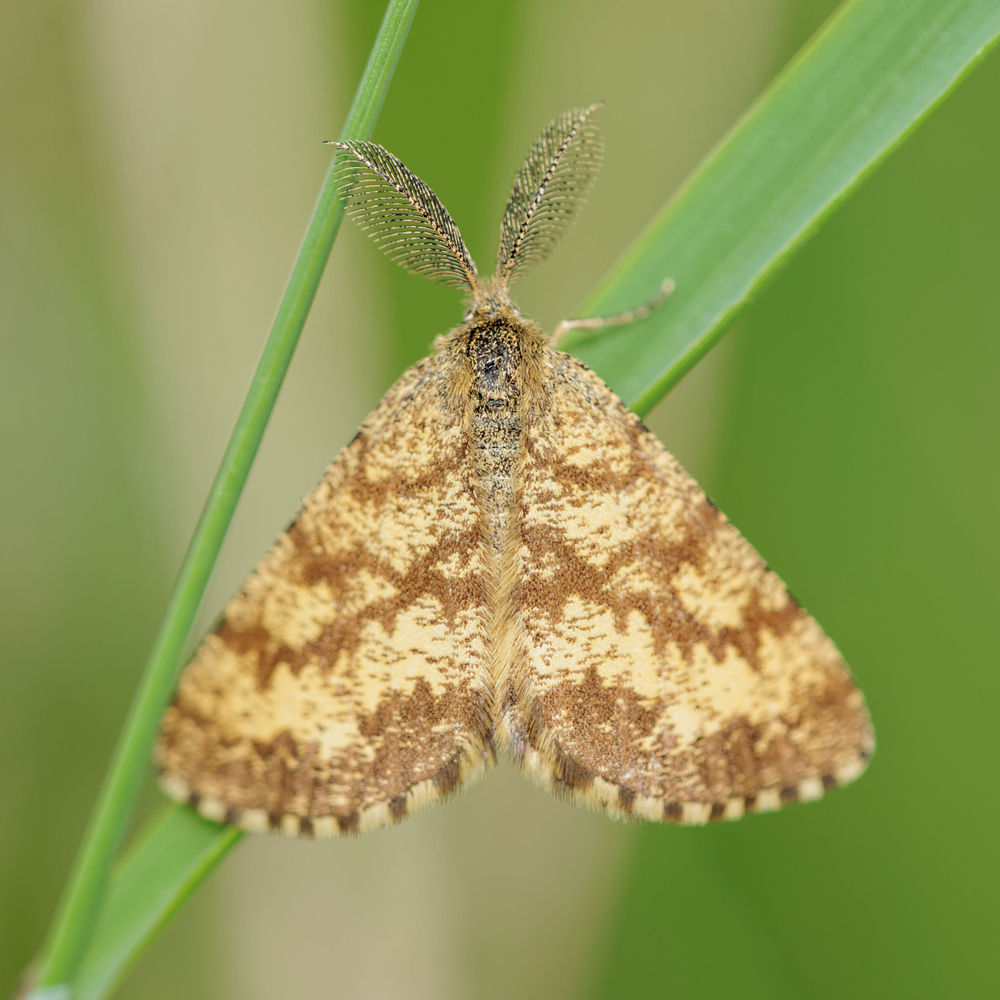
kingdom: Animalia
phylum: Arthropoda
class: Insecta
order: Lepidoptera
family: Geometridae
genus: Ematurga
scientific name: Ematurga atomaria
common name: Common heath
